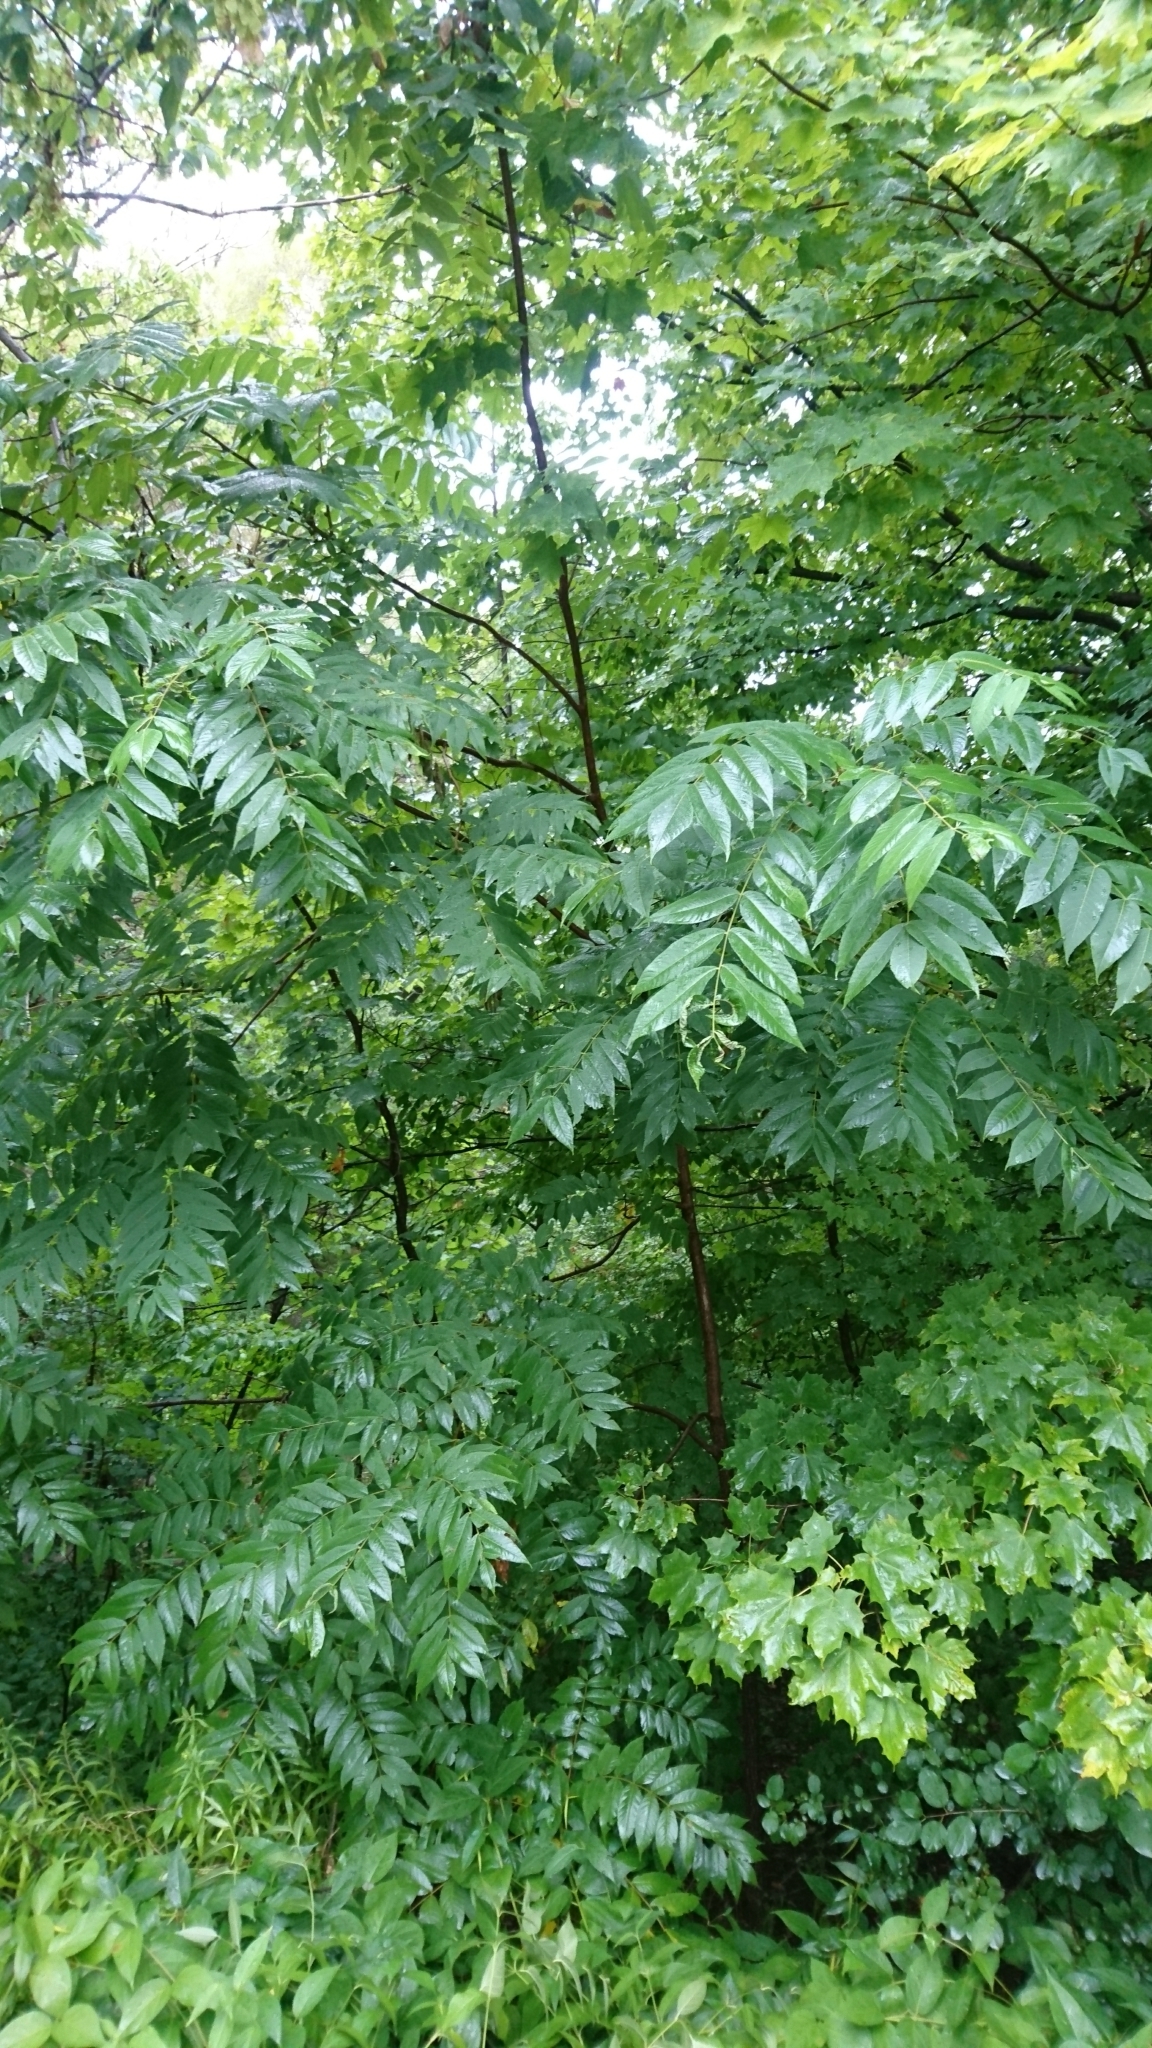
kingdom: Plantae
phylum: Tracheophyta
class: Magnoliopsida
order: Fagales
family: Juglandaceae
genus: Juglans
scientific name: Juglans nigra
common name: Black walnut
